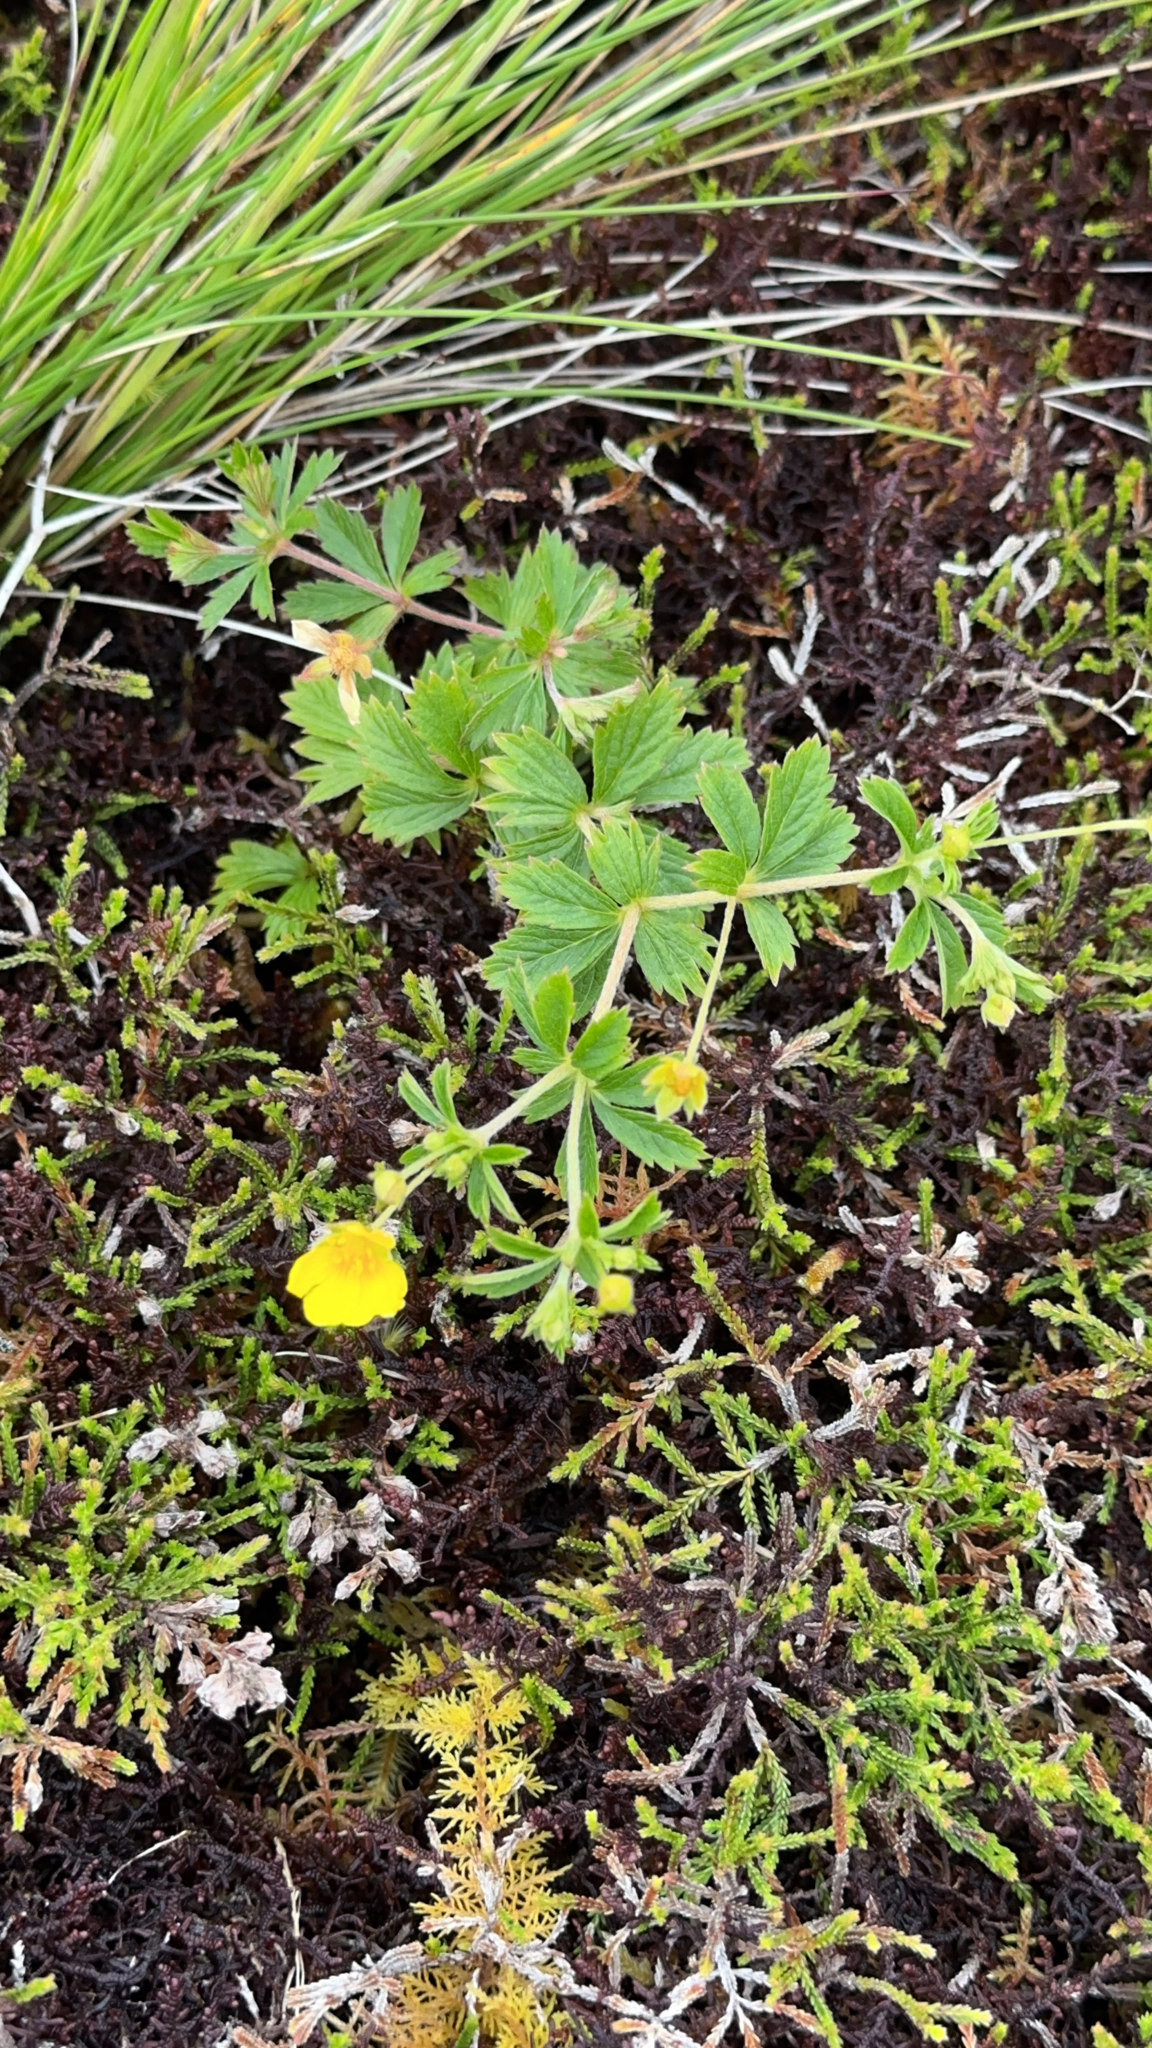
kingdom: Plantae
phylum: Tracheophyta
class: Magnoliopsida
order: Rosales
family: Rosaceae
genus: Potentilla
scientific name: Potentilla erecta
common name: Tormentil
